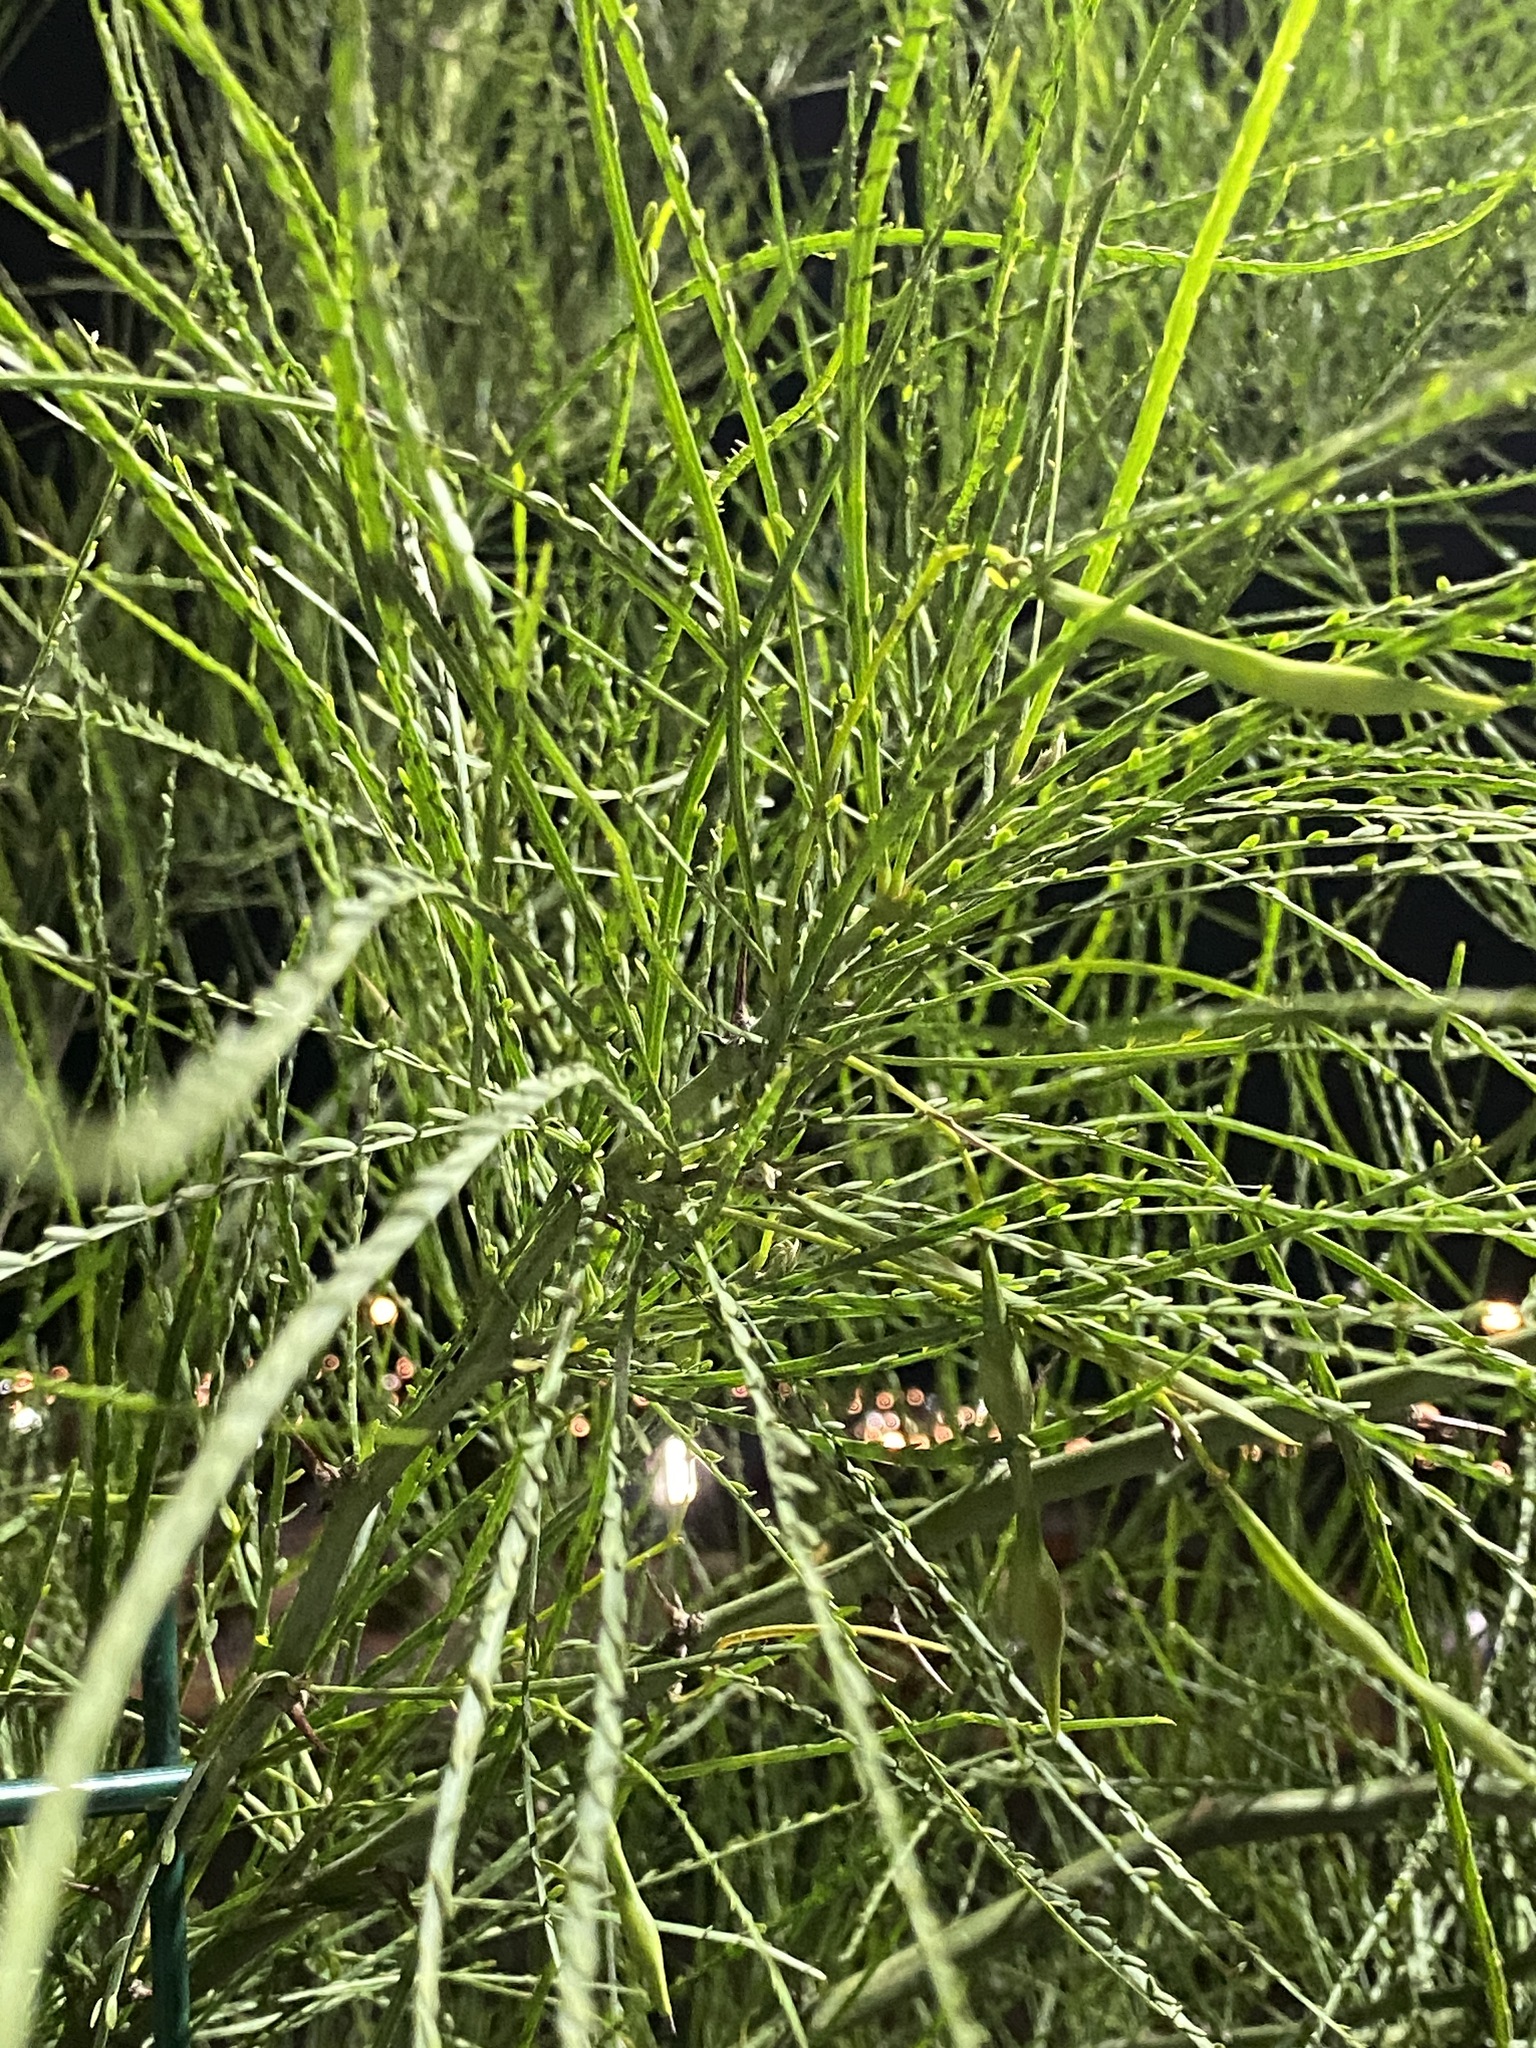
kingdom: Plantae
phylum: Tracheophyta
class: Magnoliopsida
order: Fabales
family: Fabaceae
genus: Parkinsonia
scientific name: Parkinsonia aculeata
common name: Jerusalem thorn
